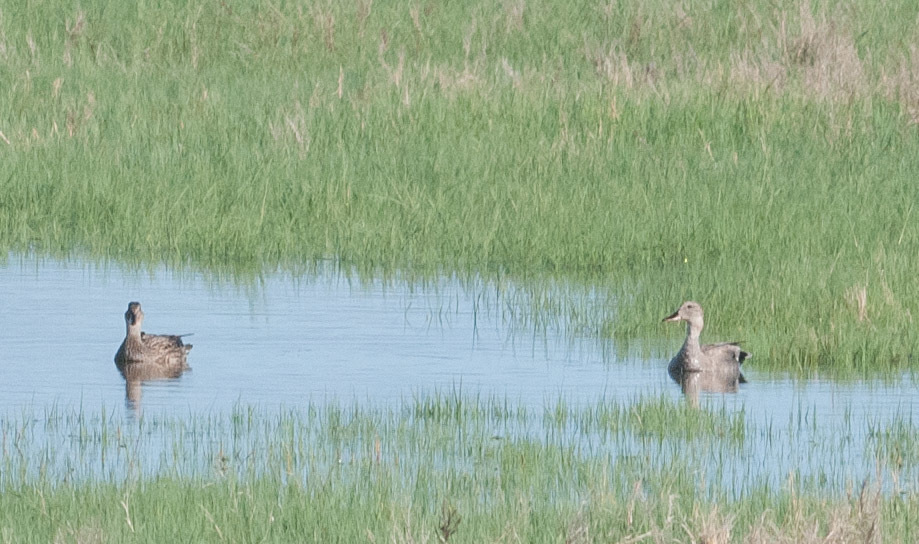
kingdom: Animalia
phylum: Chordata
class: Aves
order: Anseriformes
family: Anatidae
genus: Mareca
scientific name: Mareca strepera
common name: Gadwall
